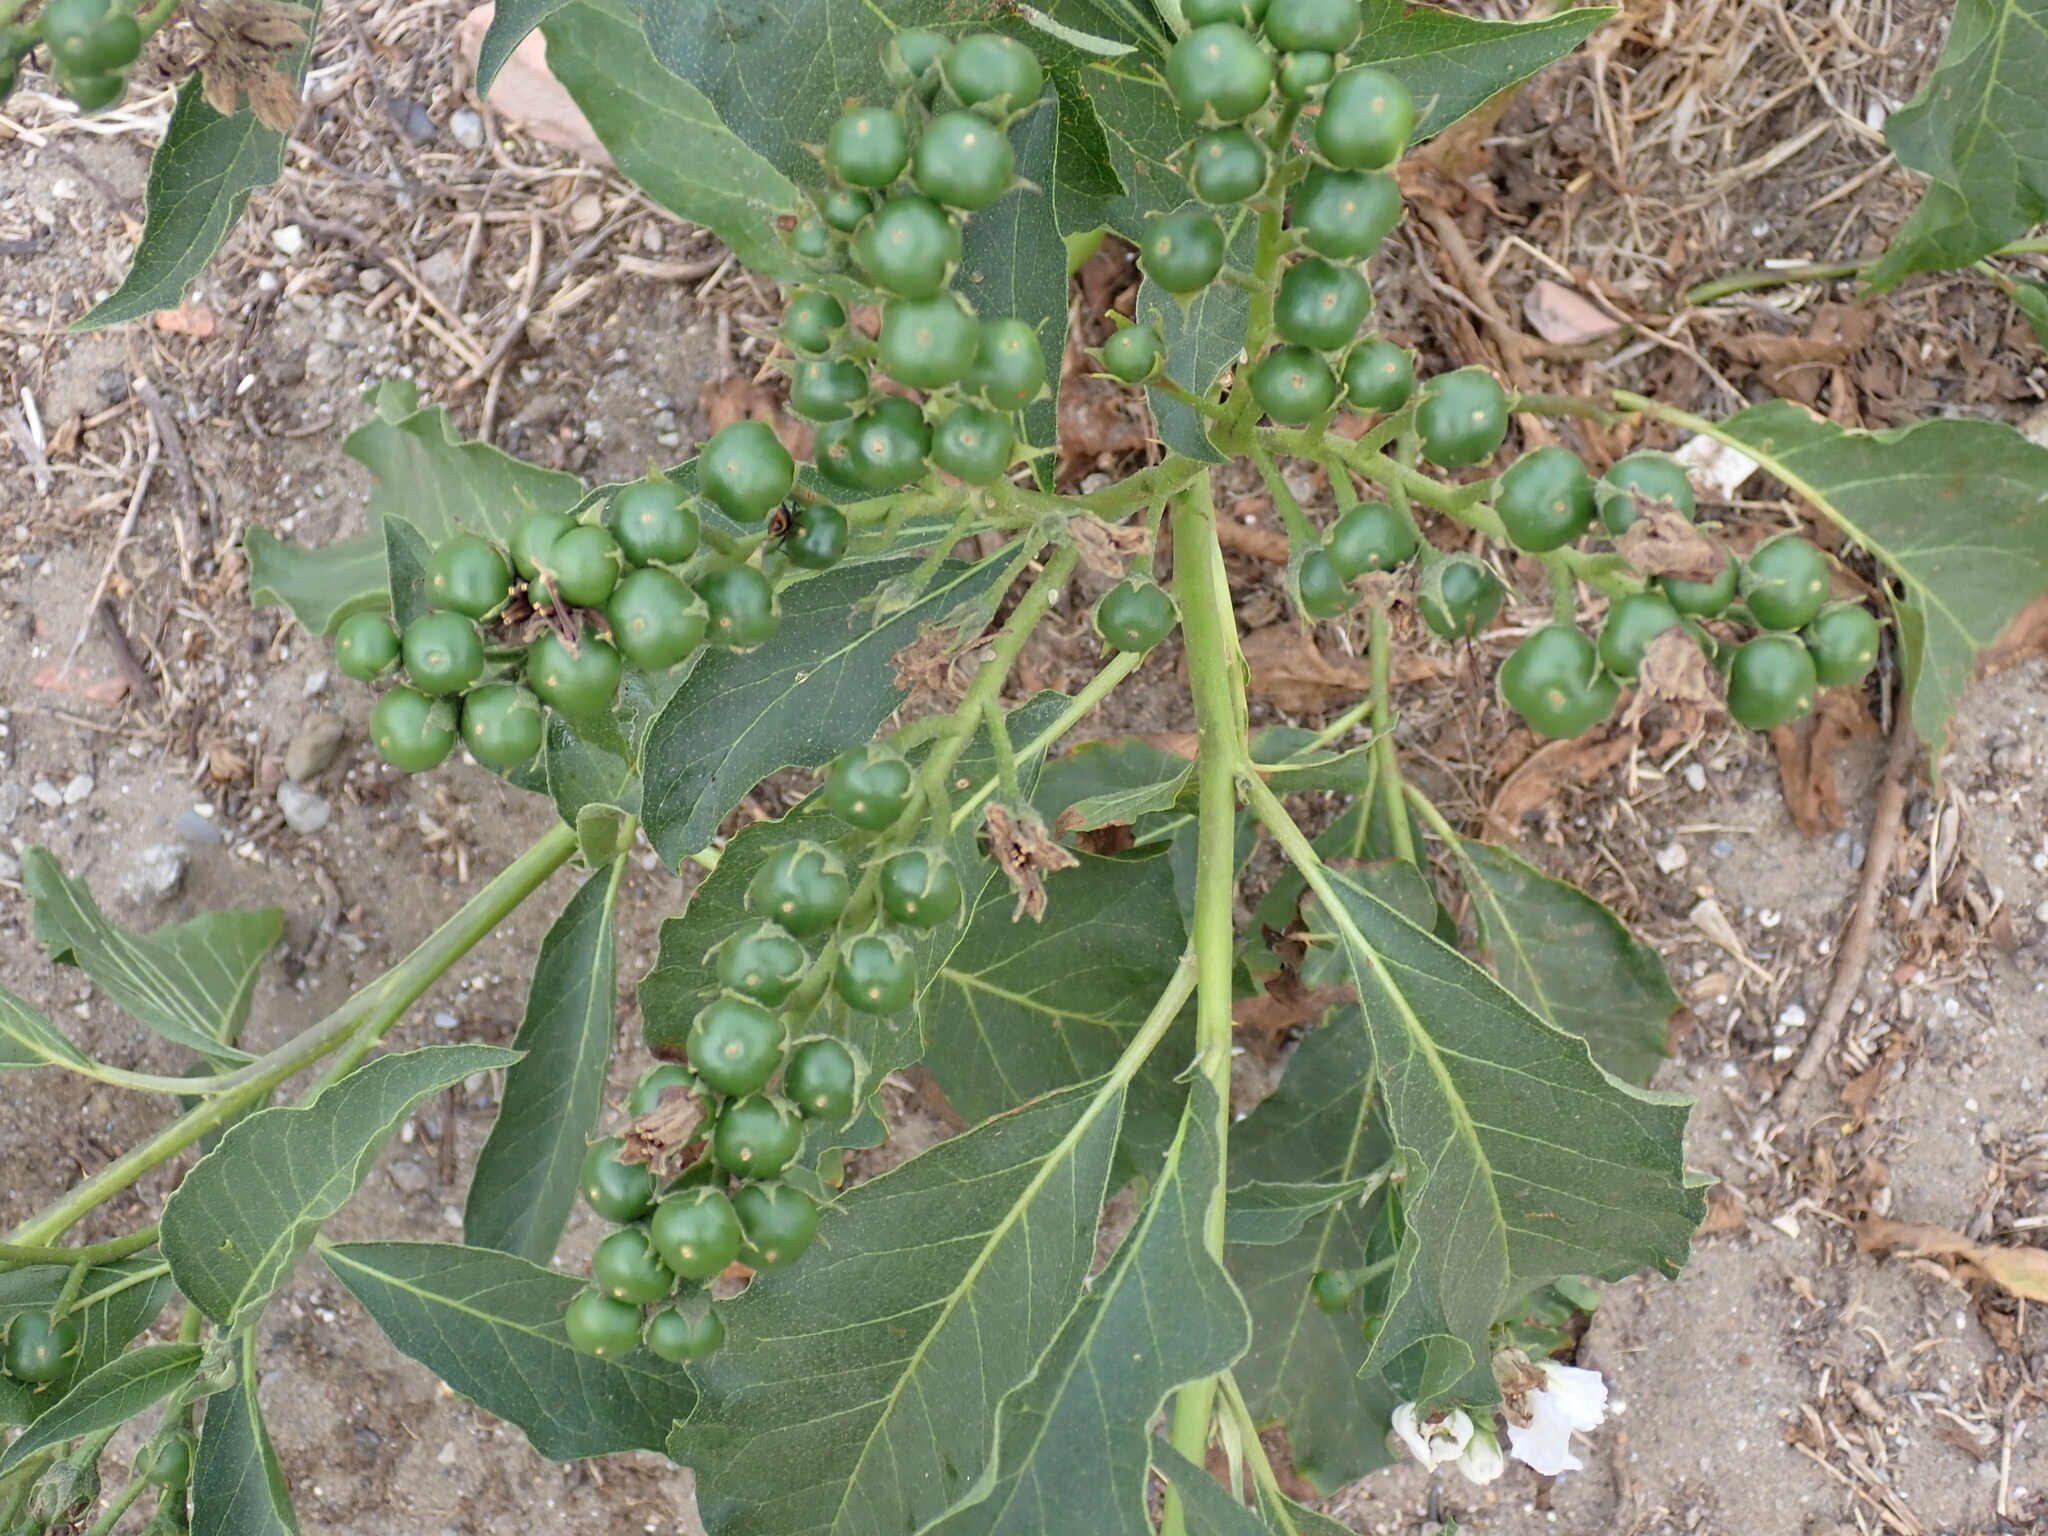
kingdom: Plantae
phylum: Tracheophyta
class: Magnoliopsida
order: Solanales
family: Solanaceae
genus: Solanum
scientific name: Solanum bonariense
